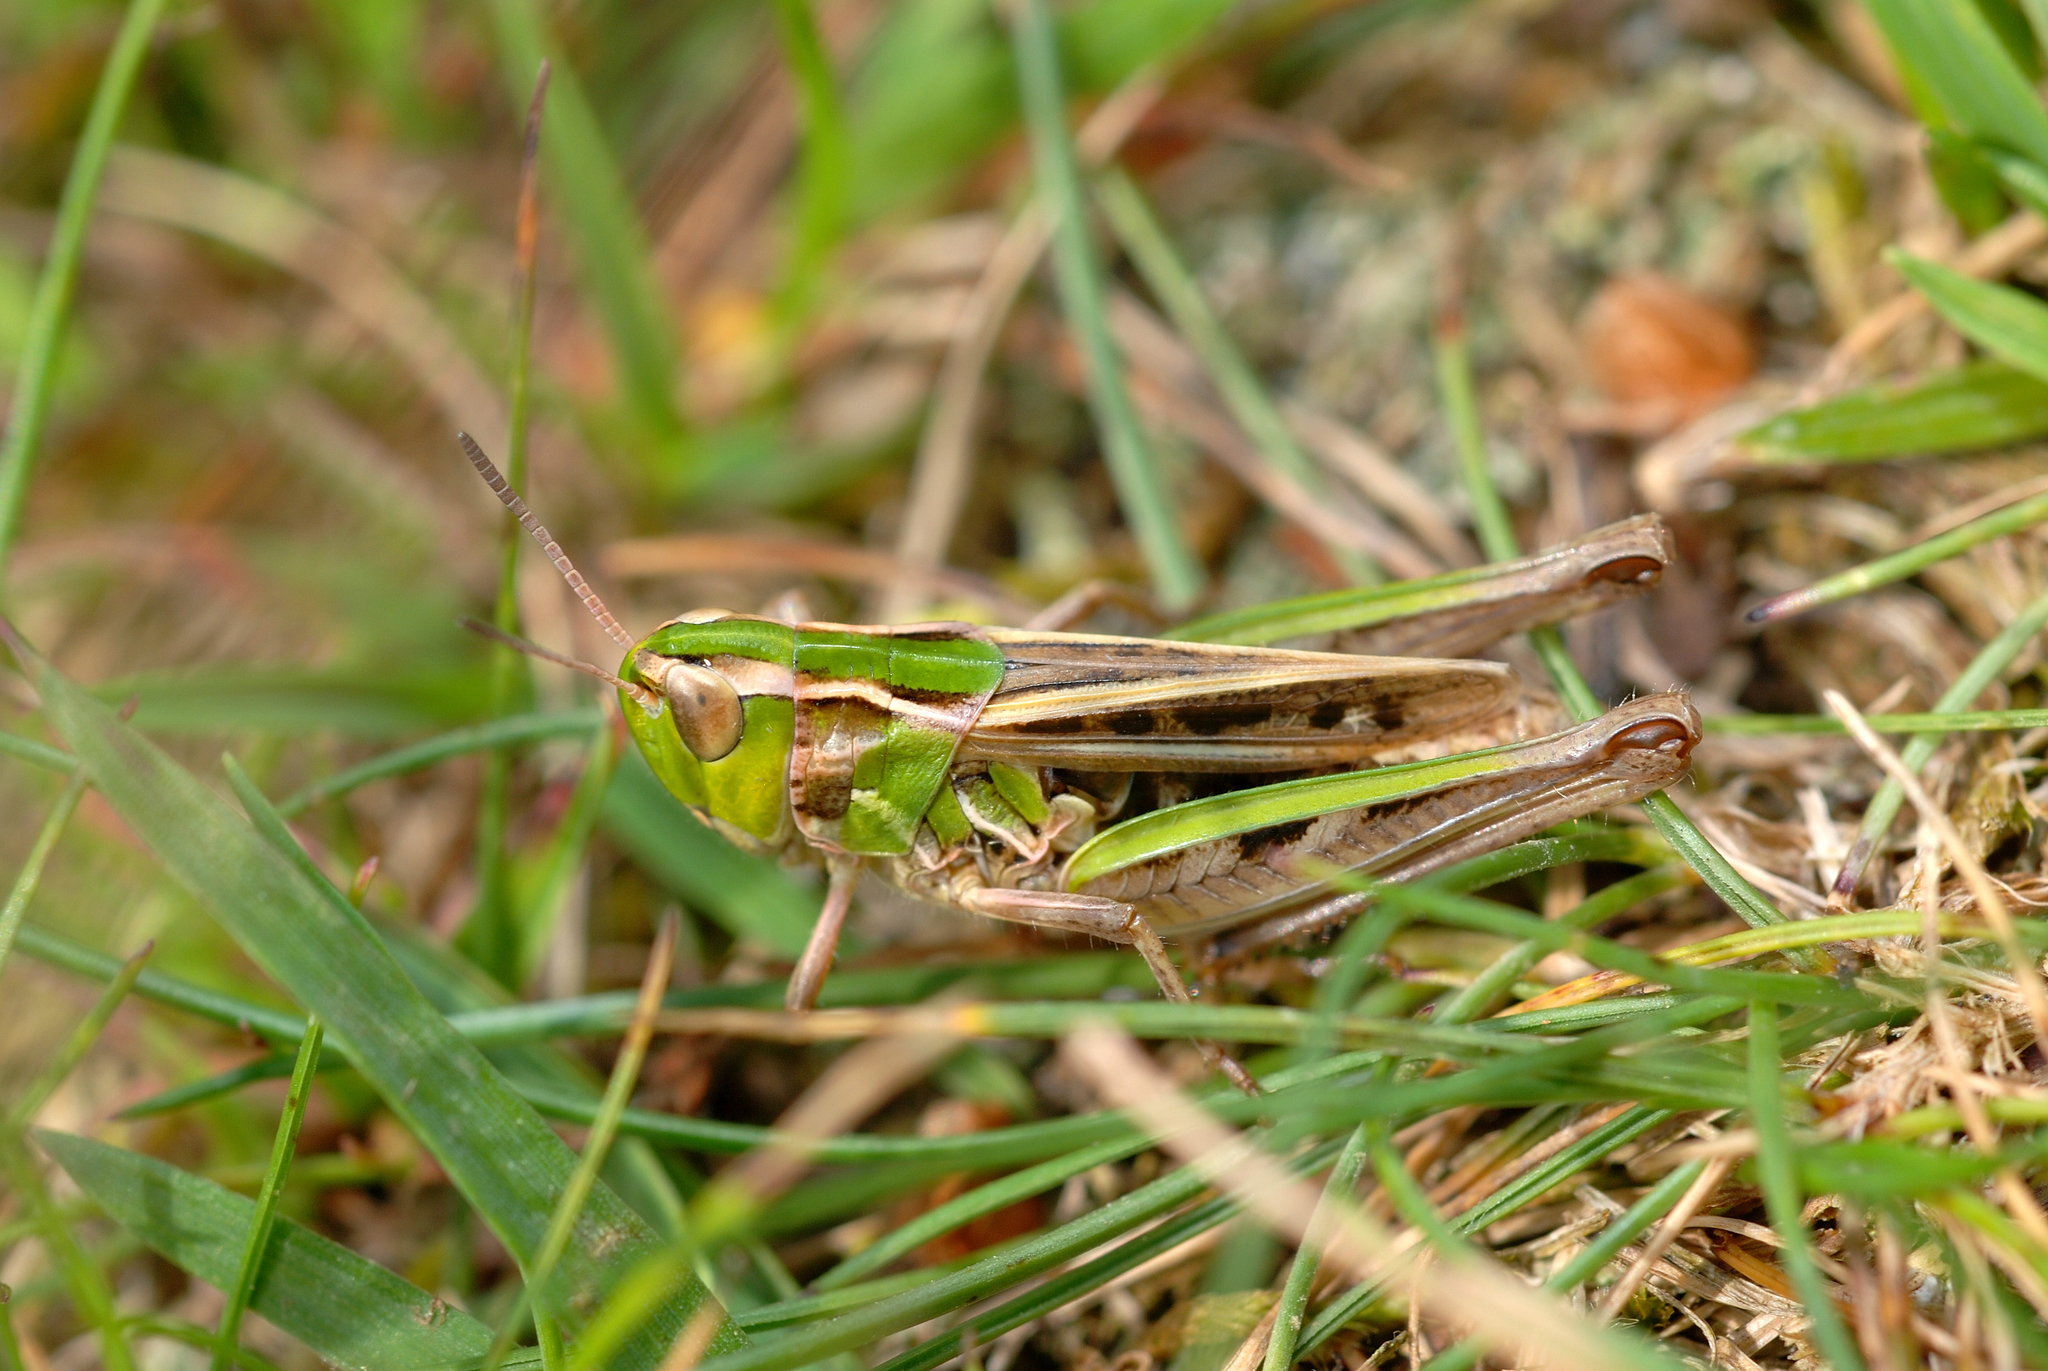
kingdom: Animalia
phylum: Arthropoda
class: Insecta
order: Orthoptera
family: Acrididae
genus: Stenobothrus
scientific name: Stenobothrus stigmaticus
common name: Lesser mottled grasshopper
